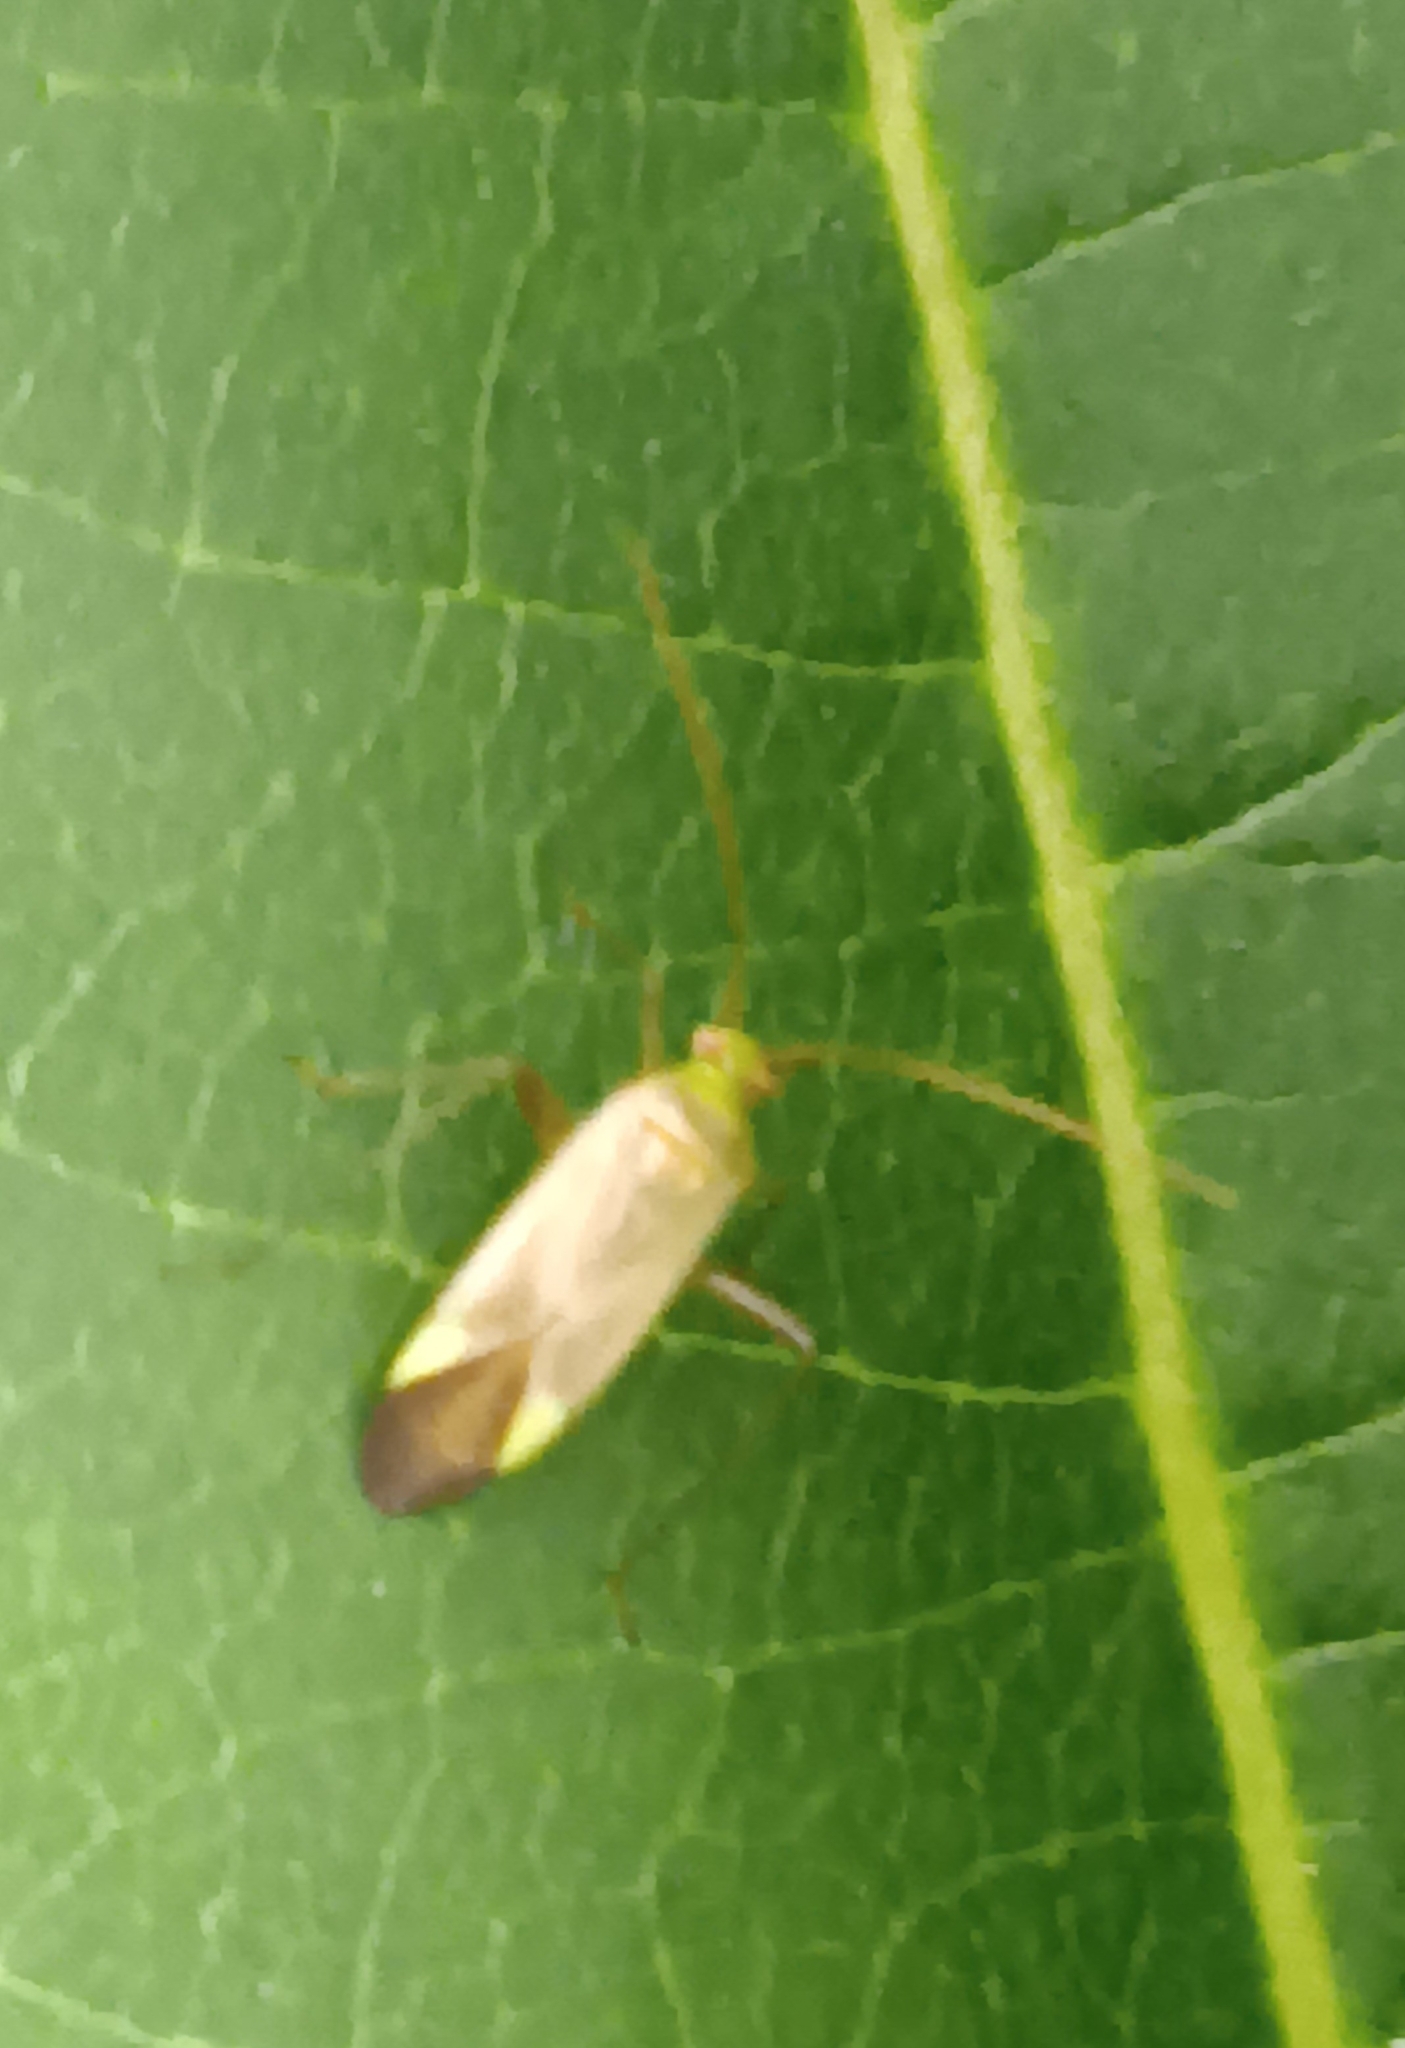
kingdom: Animalia
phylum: Arthropoda
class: Insecta
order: Hemiptera
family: Miridae
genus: Adelphocoris
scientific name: Adelphocoris lineolatus
